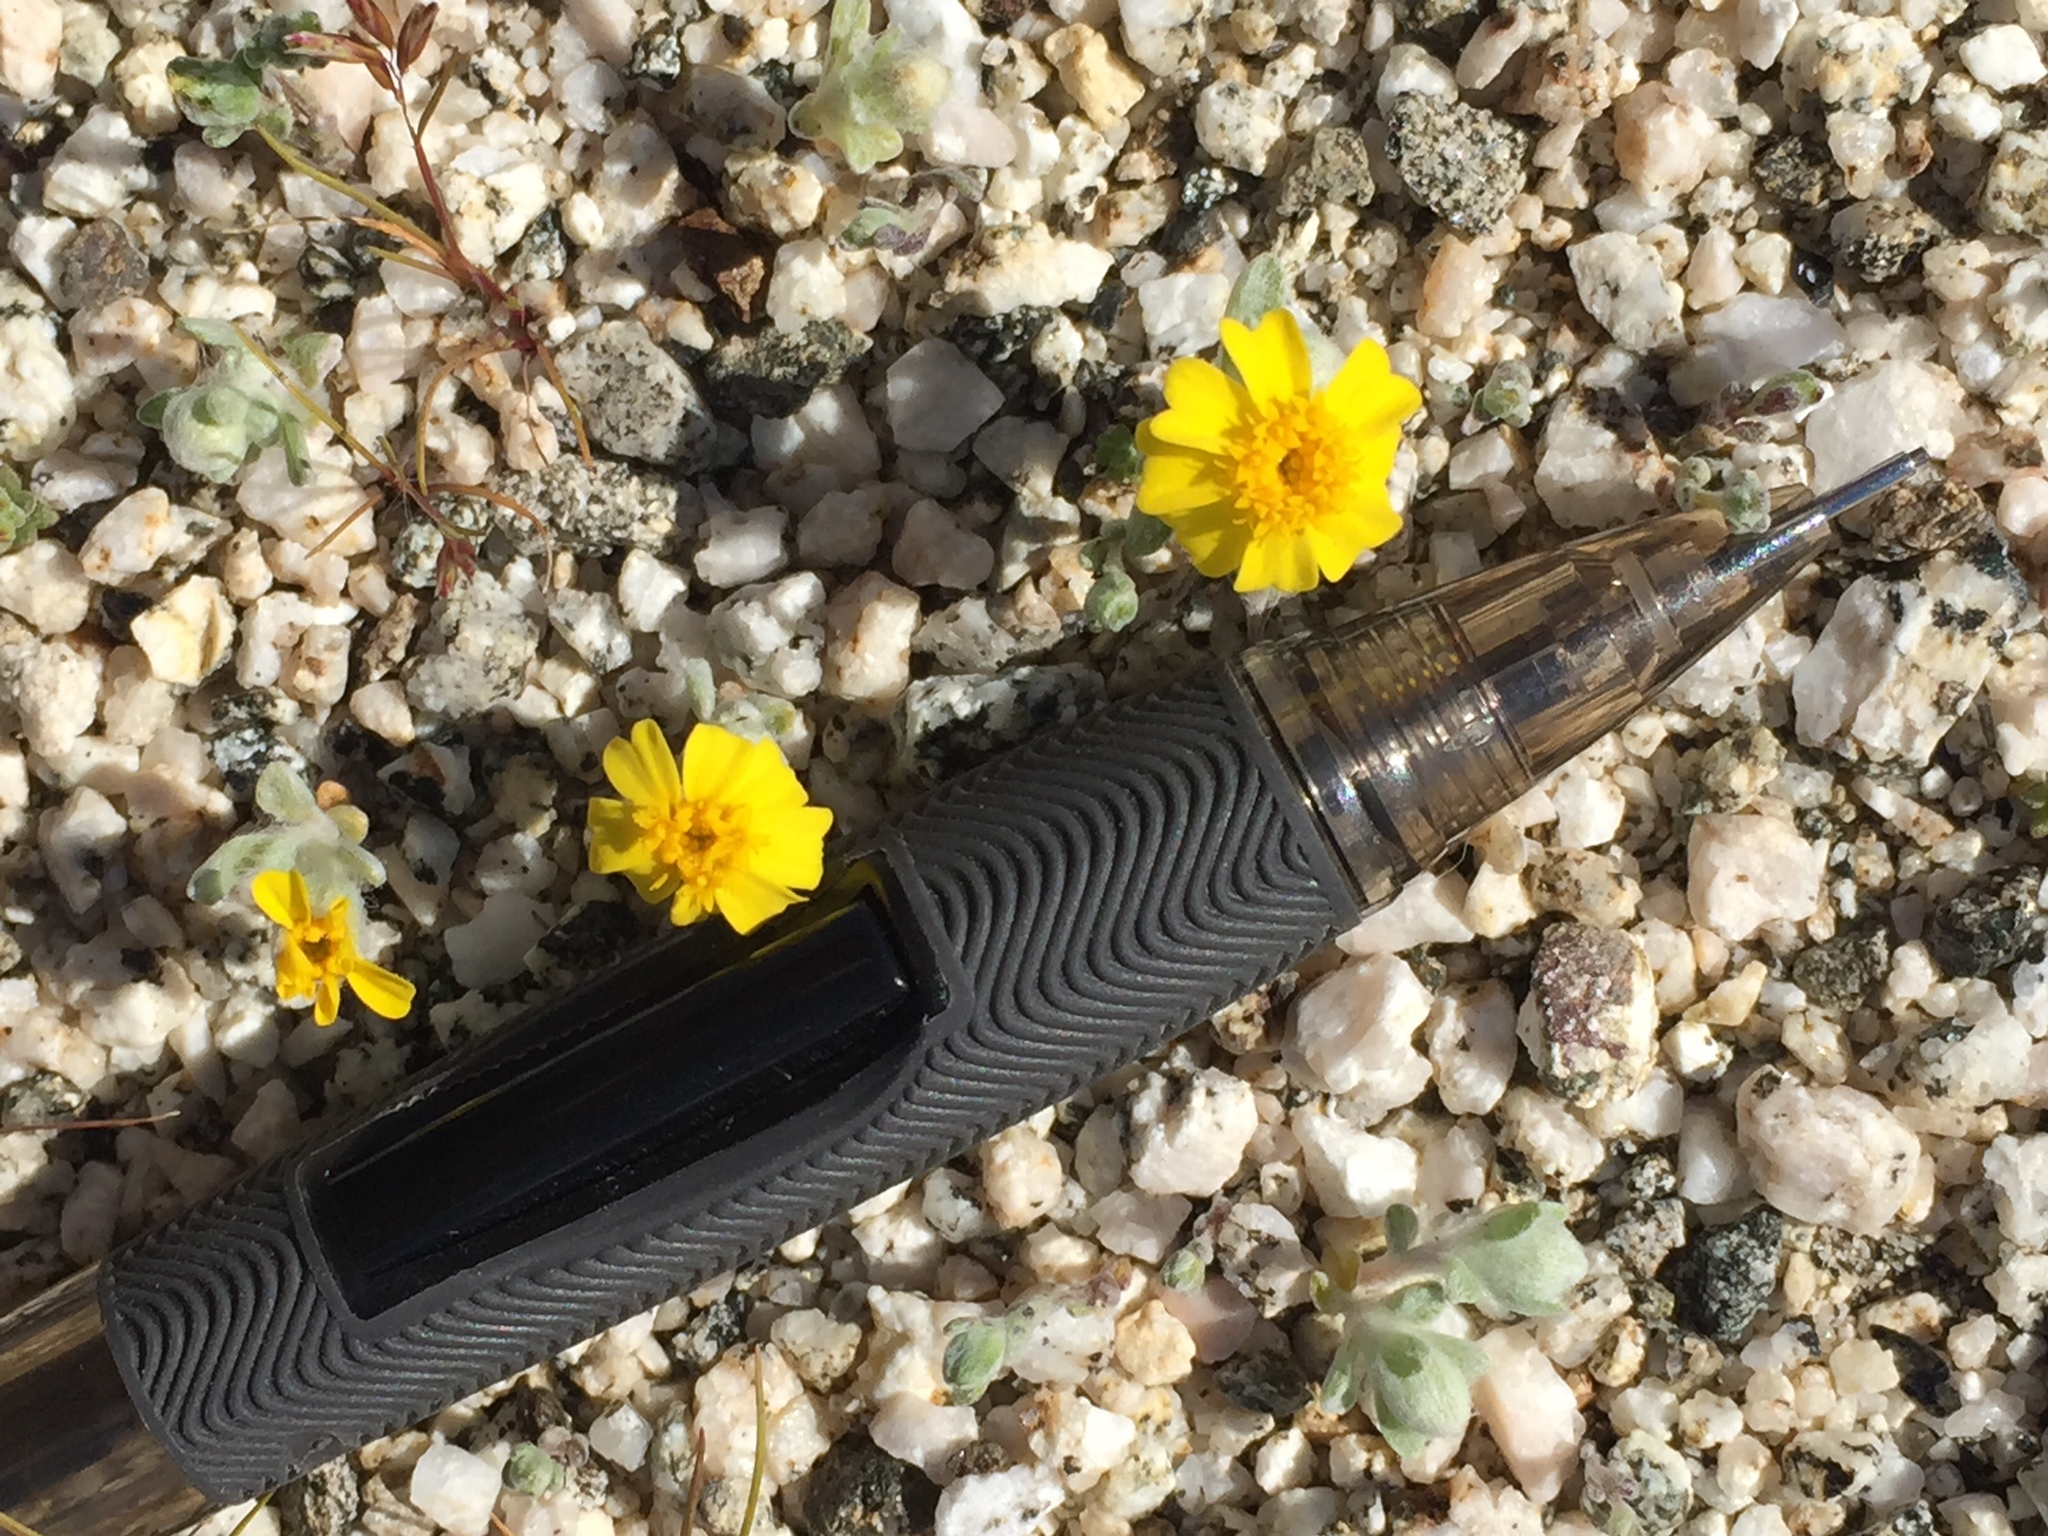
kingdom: Plantae
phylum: Tracheophyta
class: Magnoliopsida
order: Asterales
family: Asteraceae
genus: Eriophyllum
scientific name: Eriophyllum wallacei
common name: Wallace's woolly daisy
